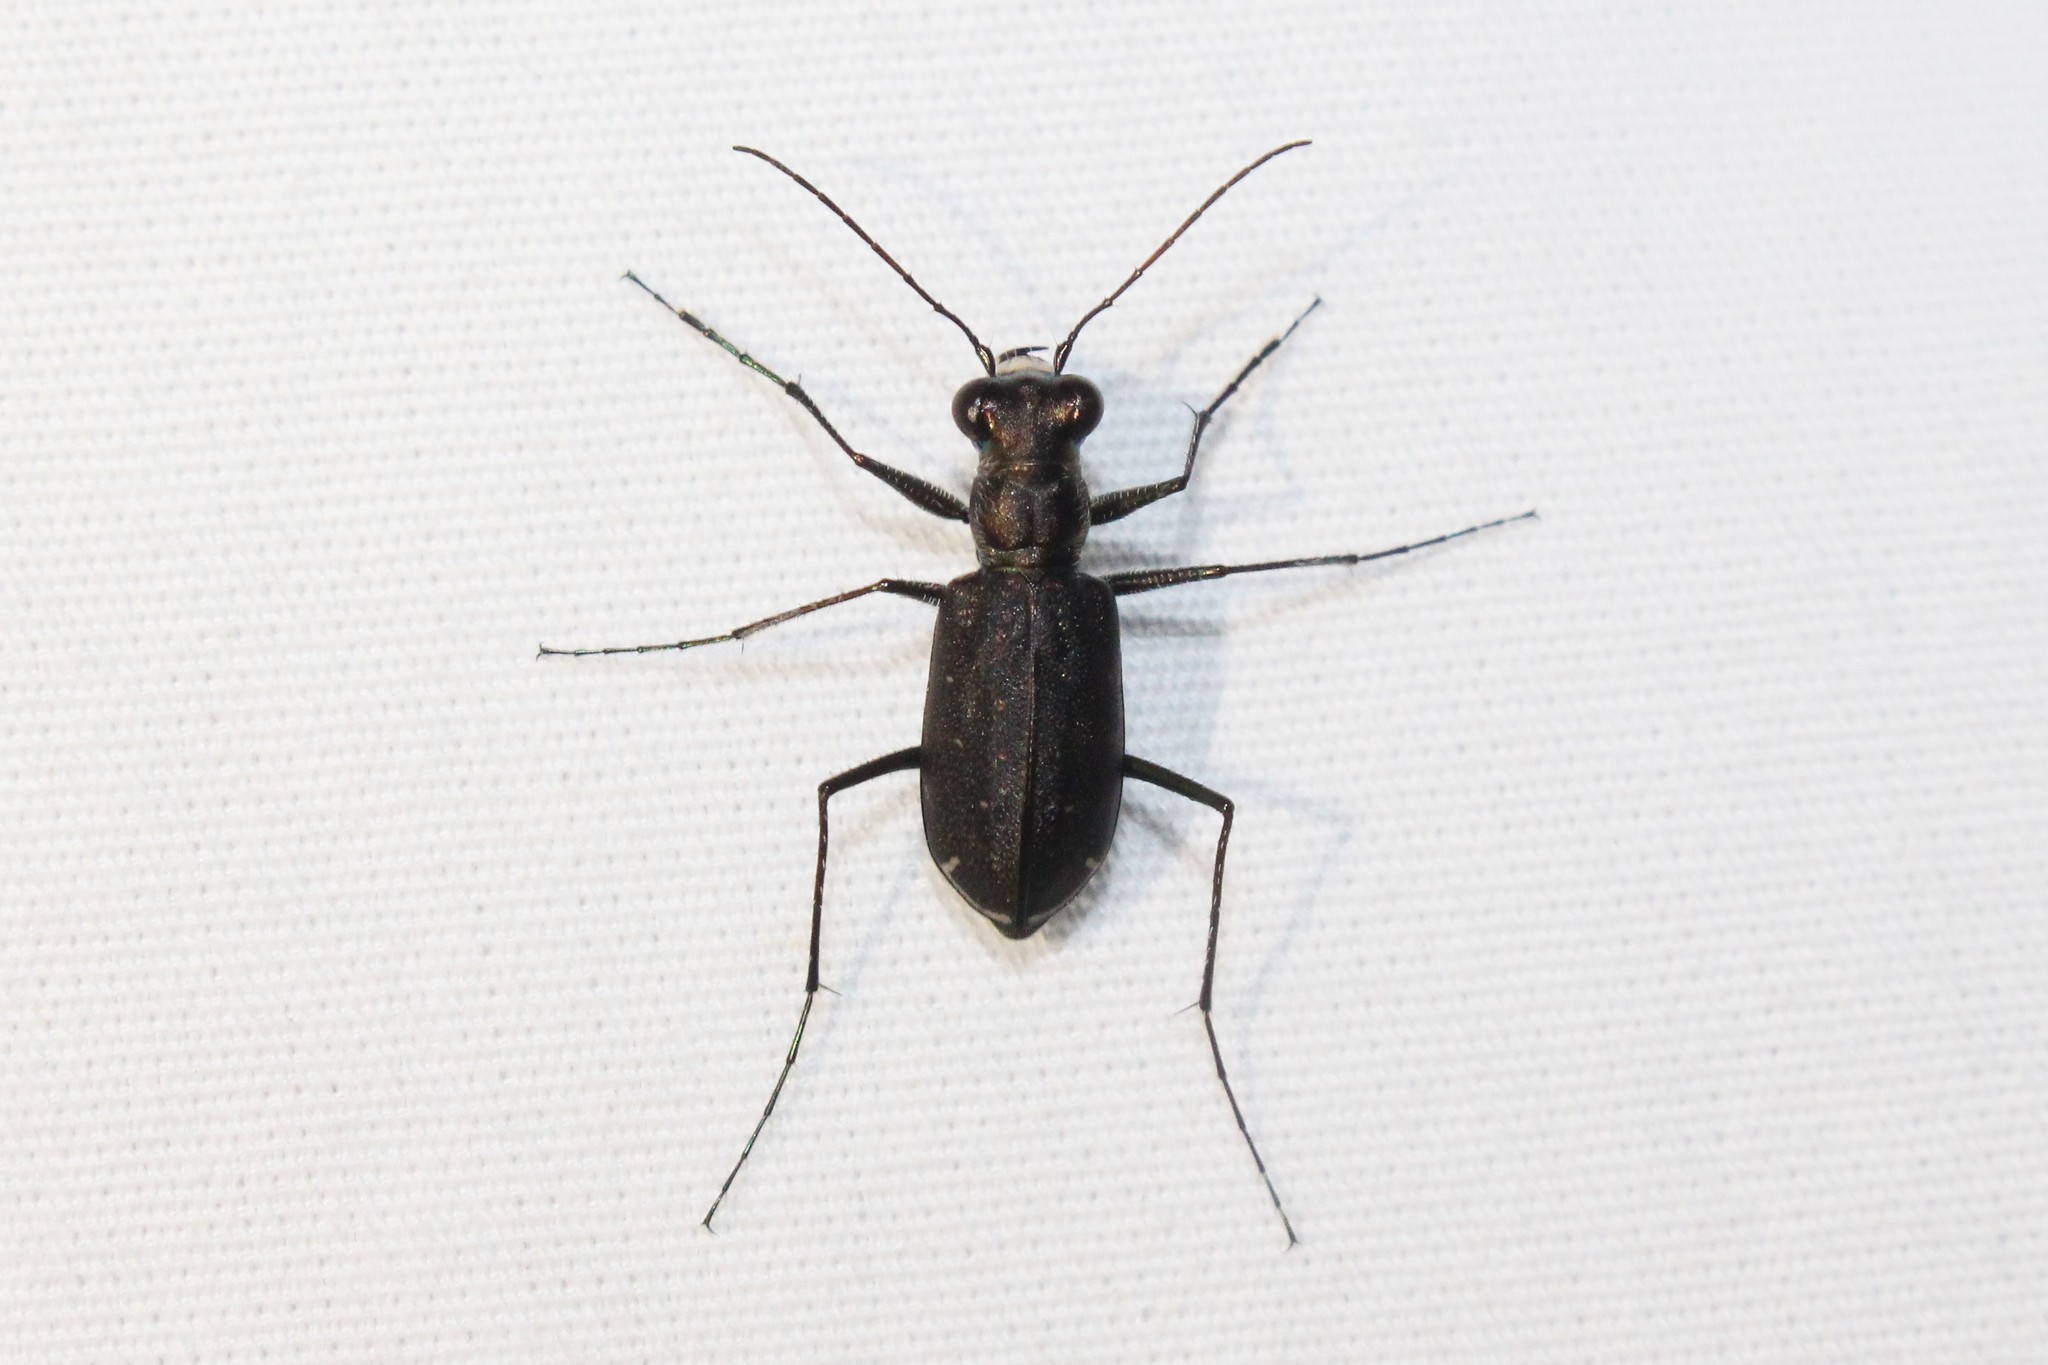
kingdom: Animalia
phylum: Arthropoda
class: Insecta
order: Coleoptera
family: Carabidae
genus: Cicindela
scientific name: Cicindela punctulata
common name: Punctured tiger beetle
